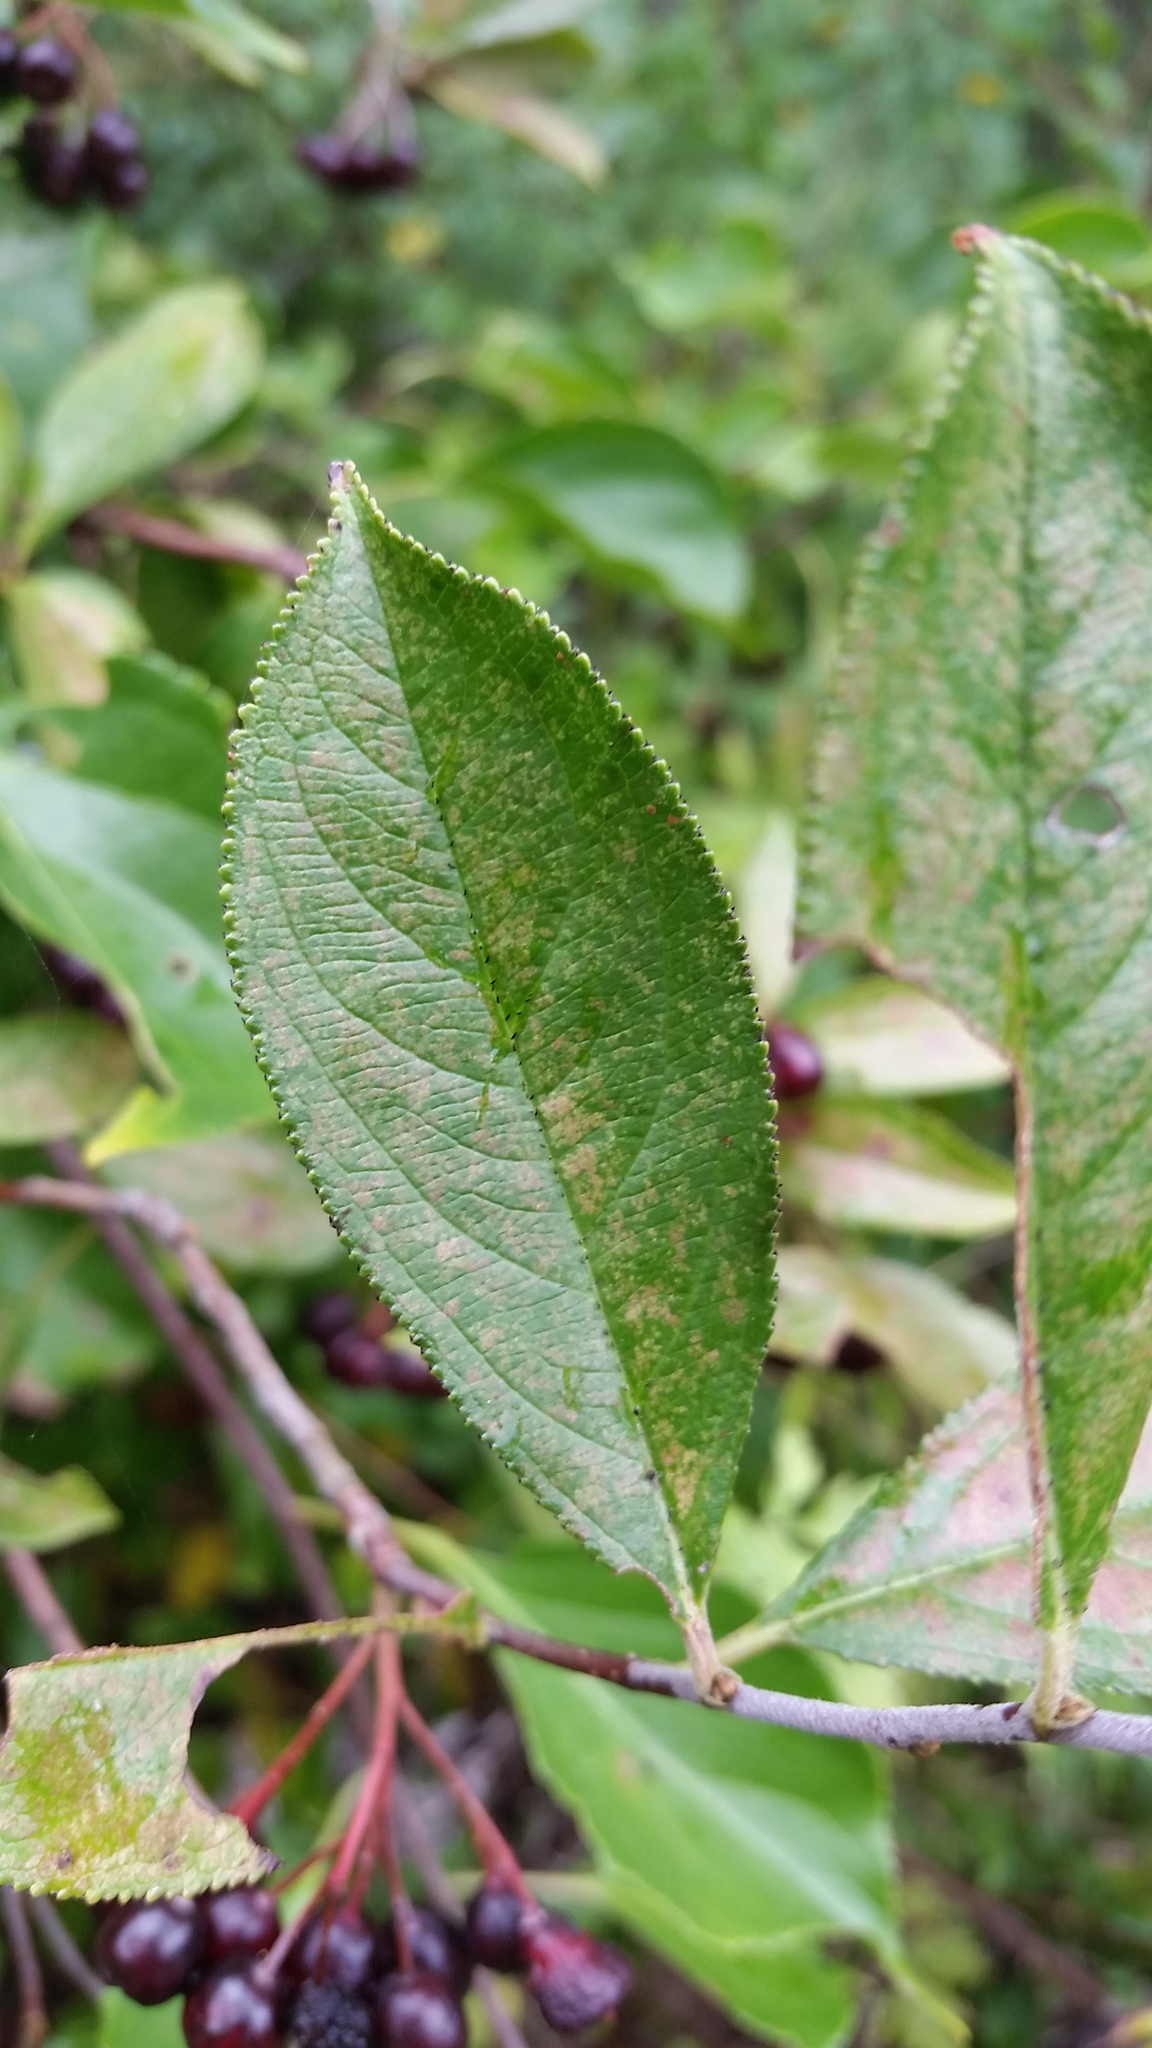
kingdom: Plantae
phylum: Tracheophyta
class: Magnoliopsida
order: Rosales
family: Rosaceae
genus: Aronia
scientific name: Aronia arbutifolia
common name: Red chokeberry
